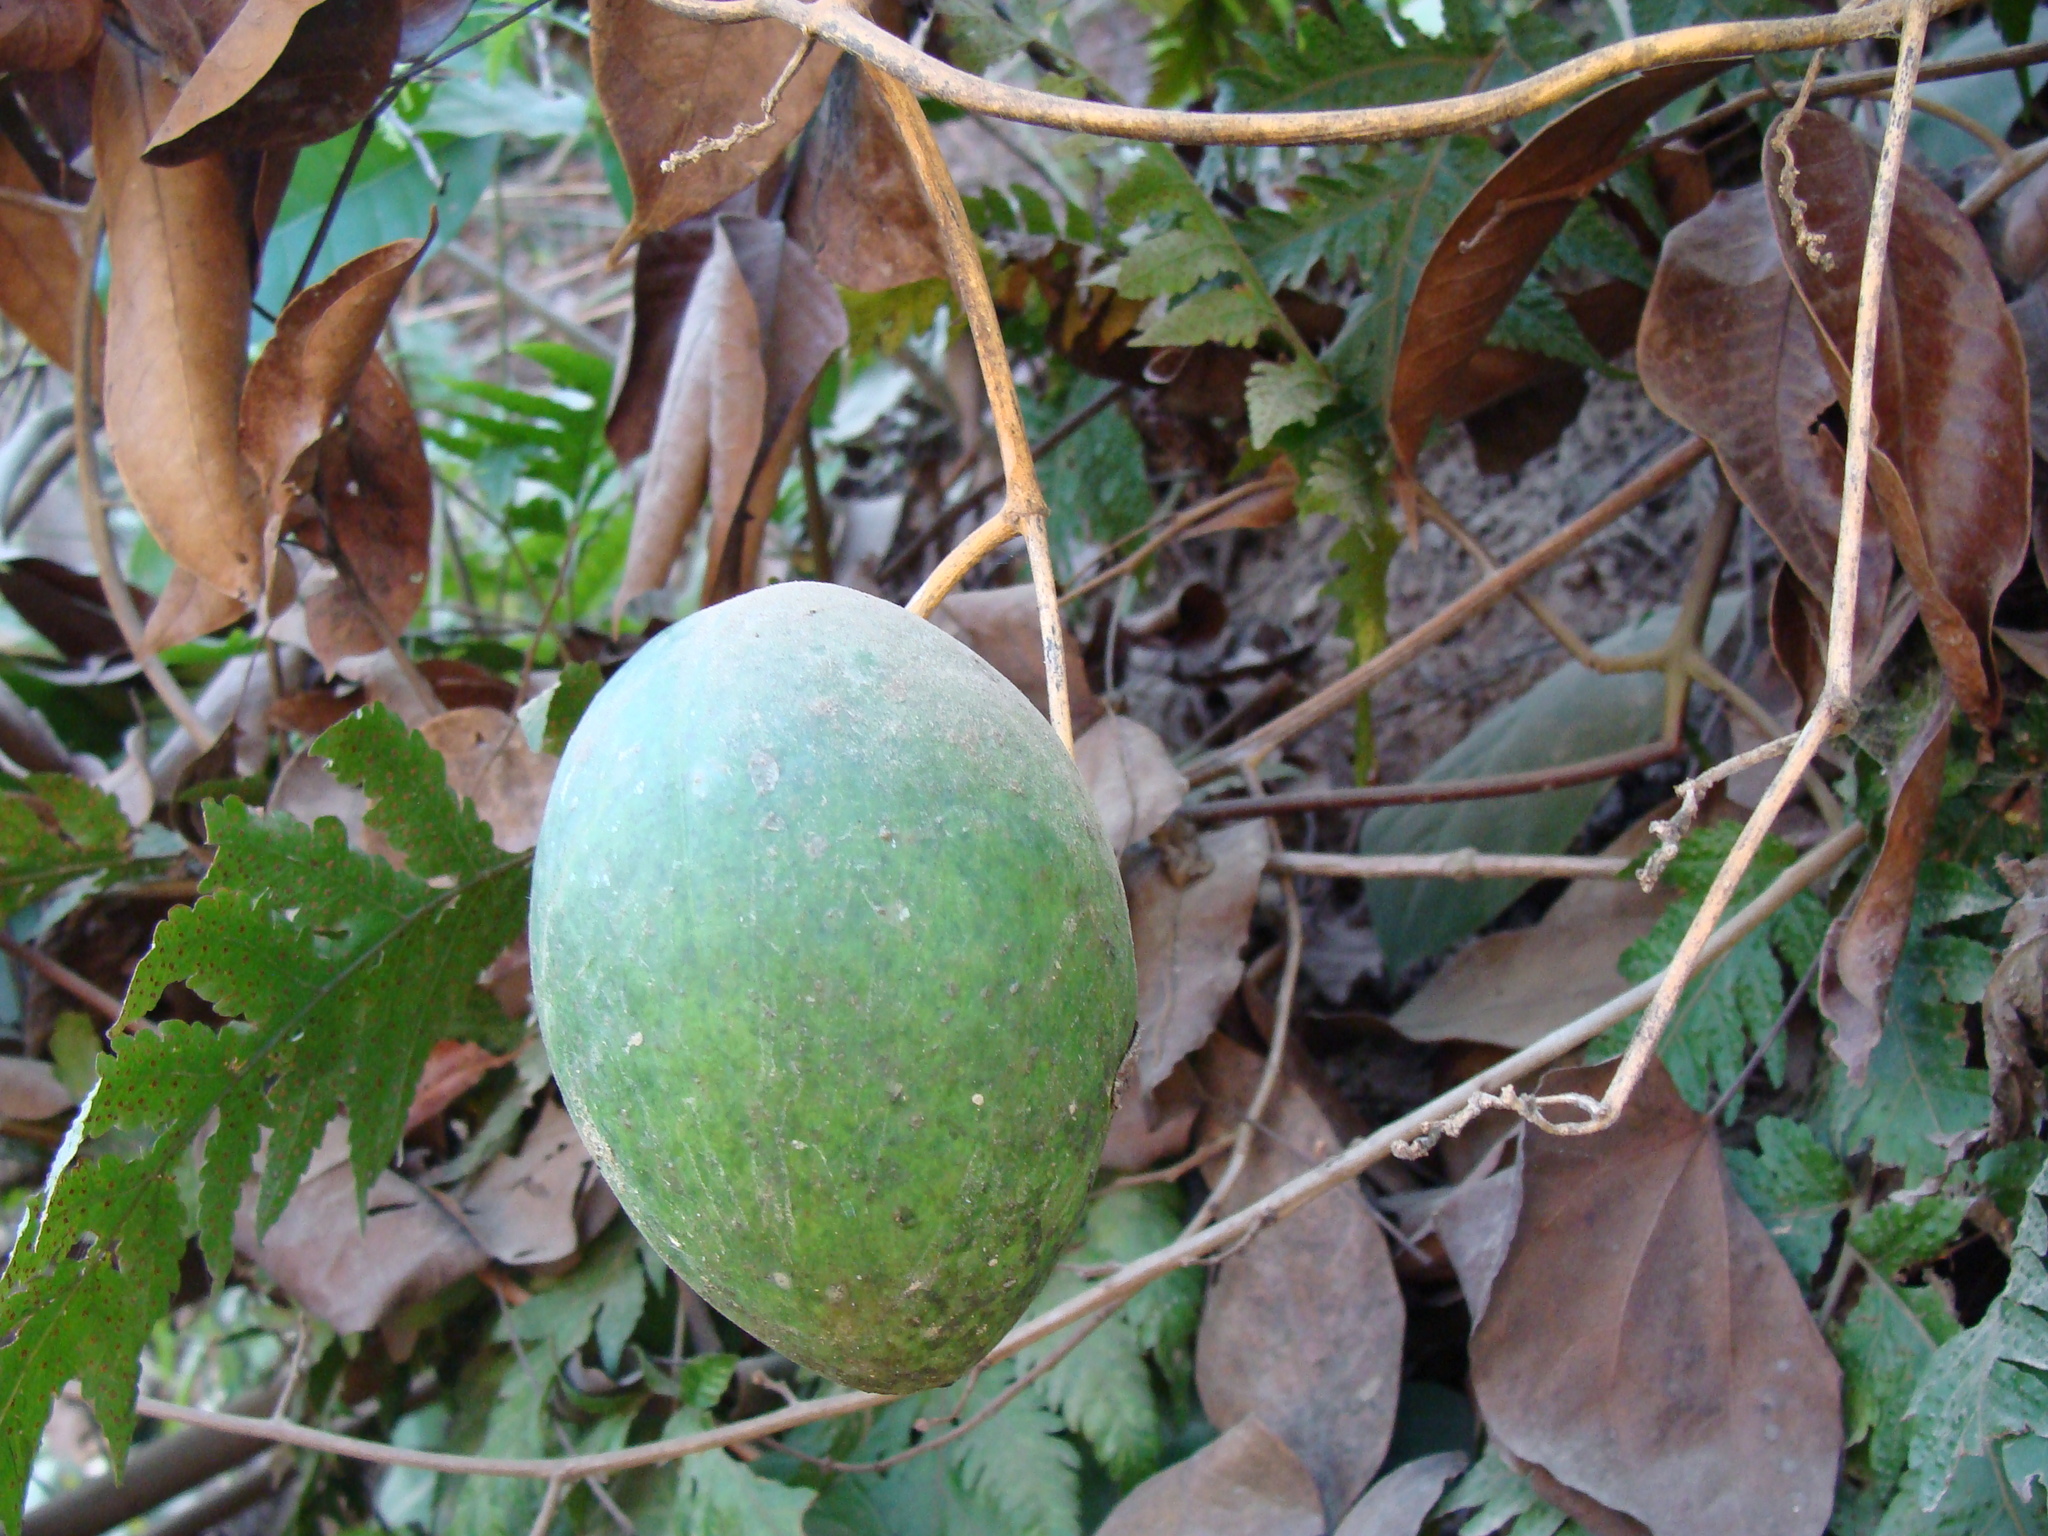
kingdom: Plantae
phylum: Tracheophyta
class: Magnoliopsida
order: Gentianales
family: Apocynaceae
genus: Gonolobus
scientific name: Gonolobus niger
